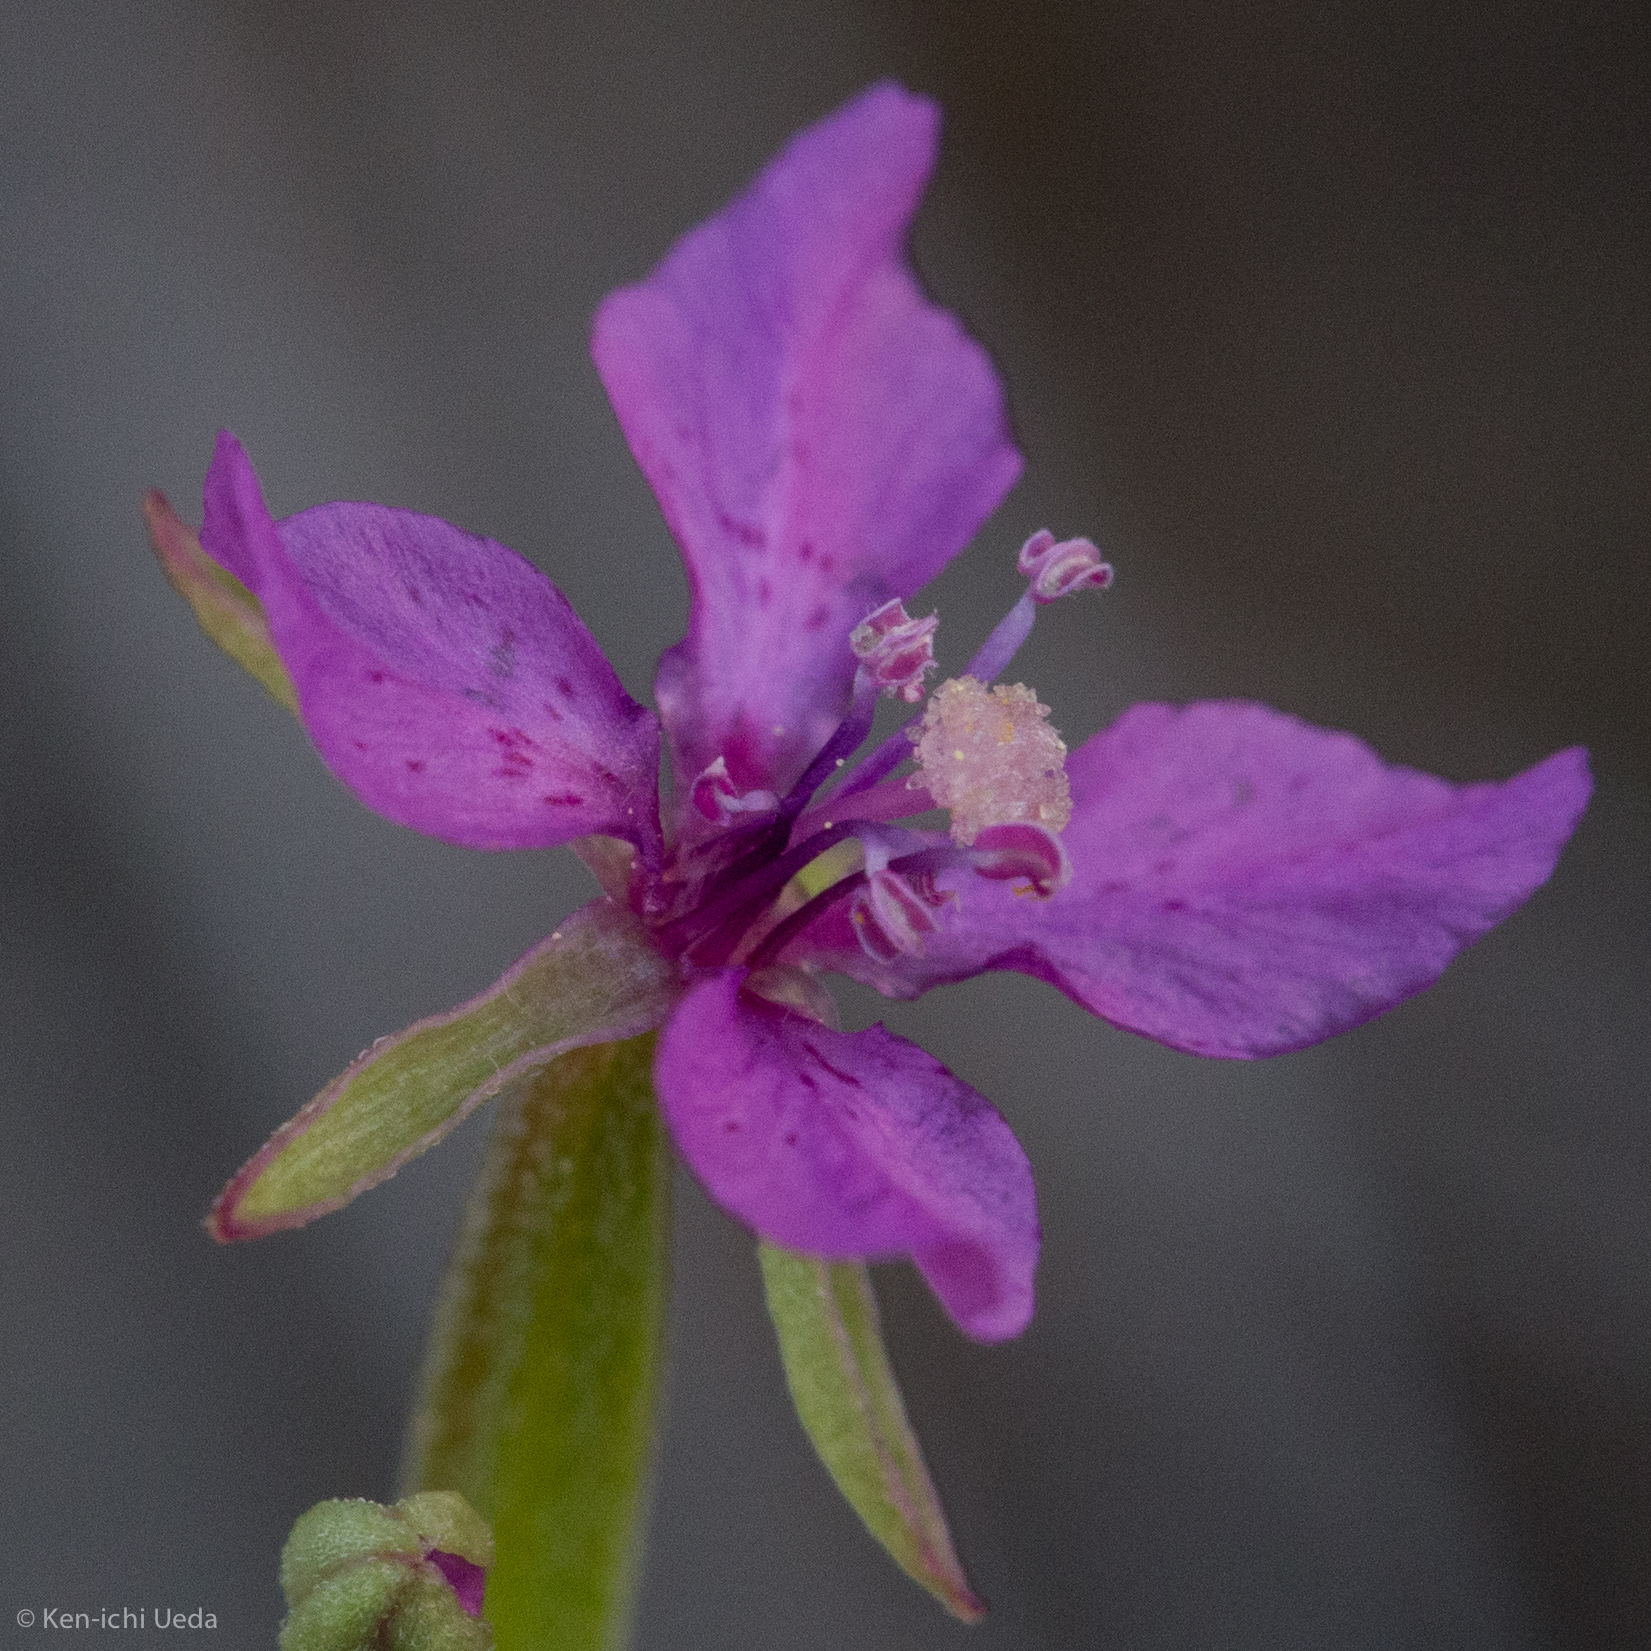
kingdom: Plantae
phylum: Tracheophyta
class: Magnoliopsida
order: Myrtales
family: Onagraceae
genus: Clarkia
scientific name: Clarkia rhomboidea
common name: Broadleaf clarkia
